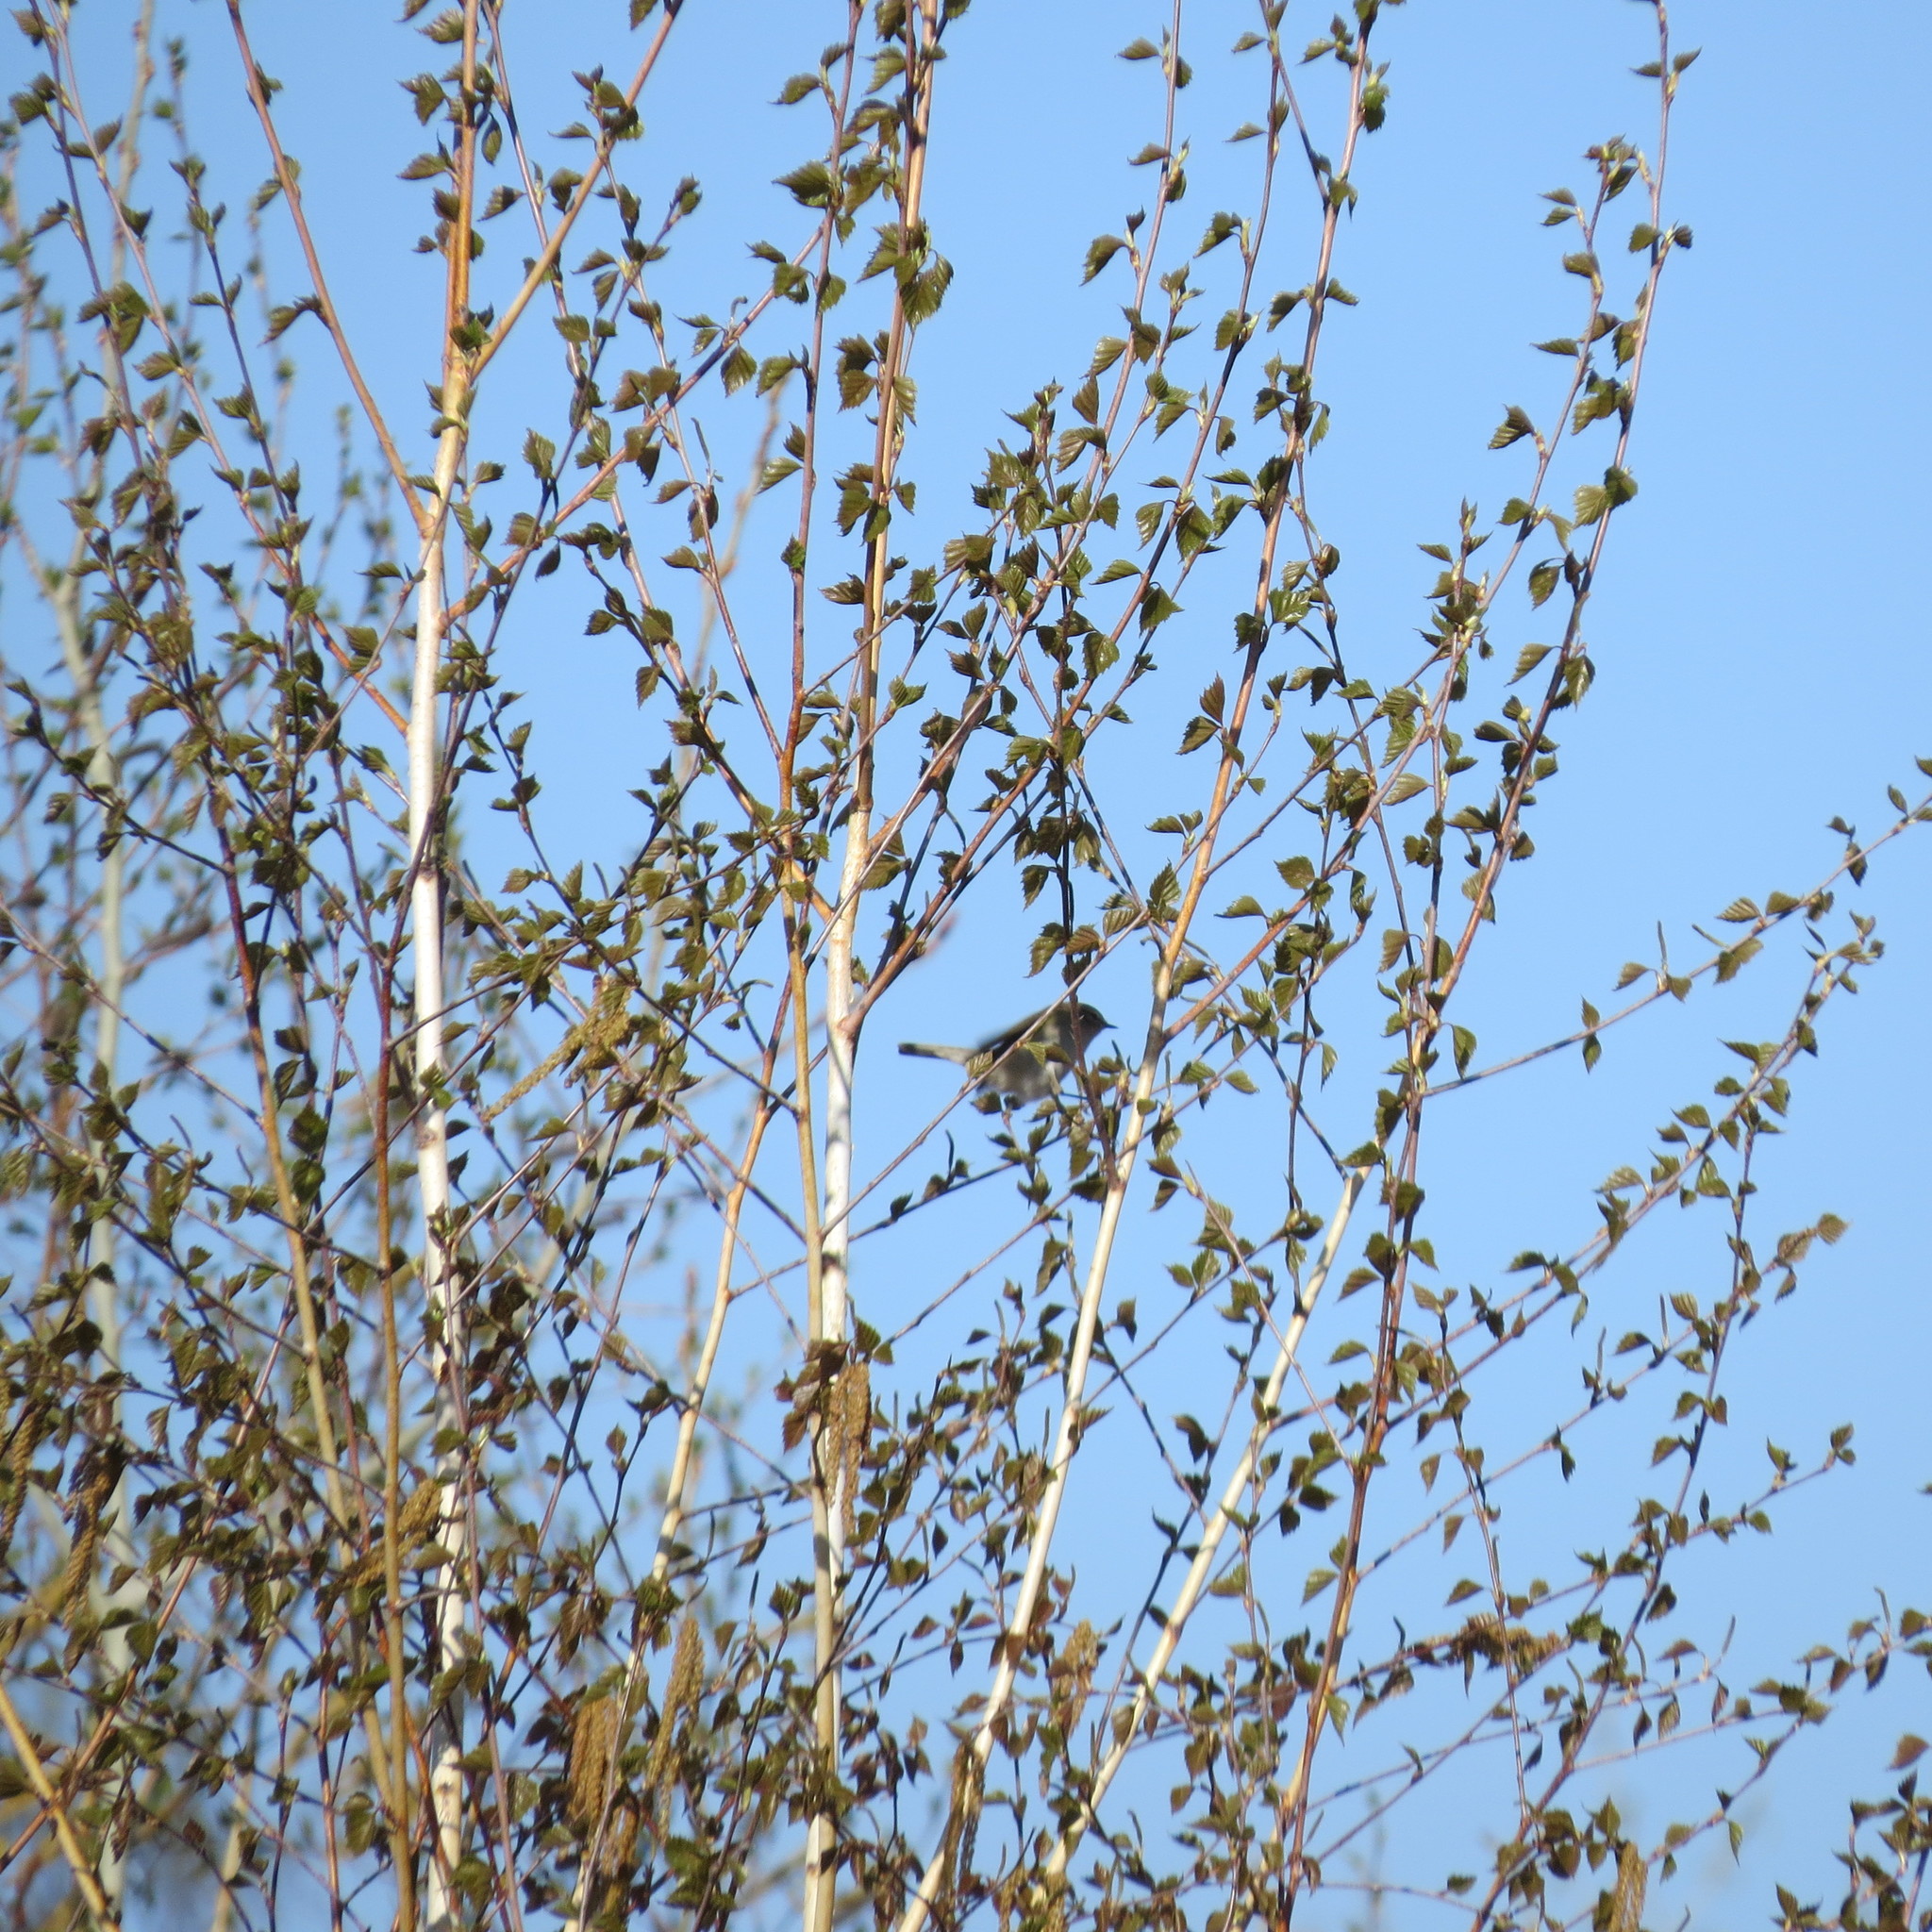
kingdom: Animalia
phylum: Chordata
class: Aves
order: Passeriformes
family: Phylloscopidae
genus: Phylloscopus
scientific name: Phylloscopus collybita
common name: Common chiffchaff
